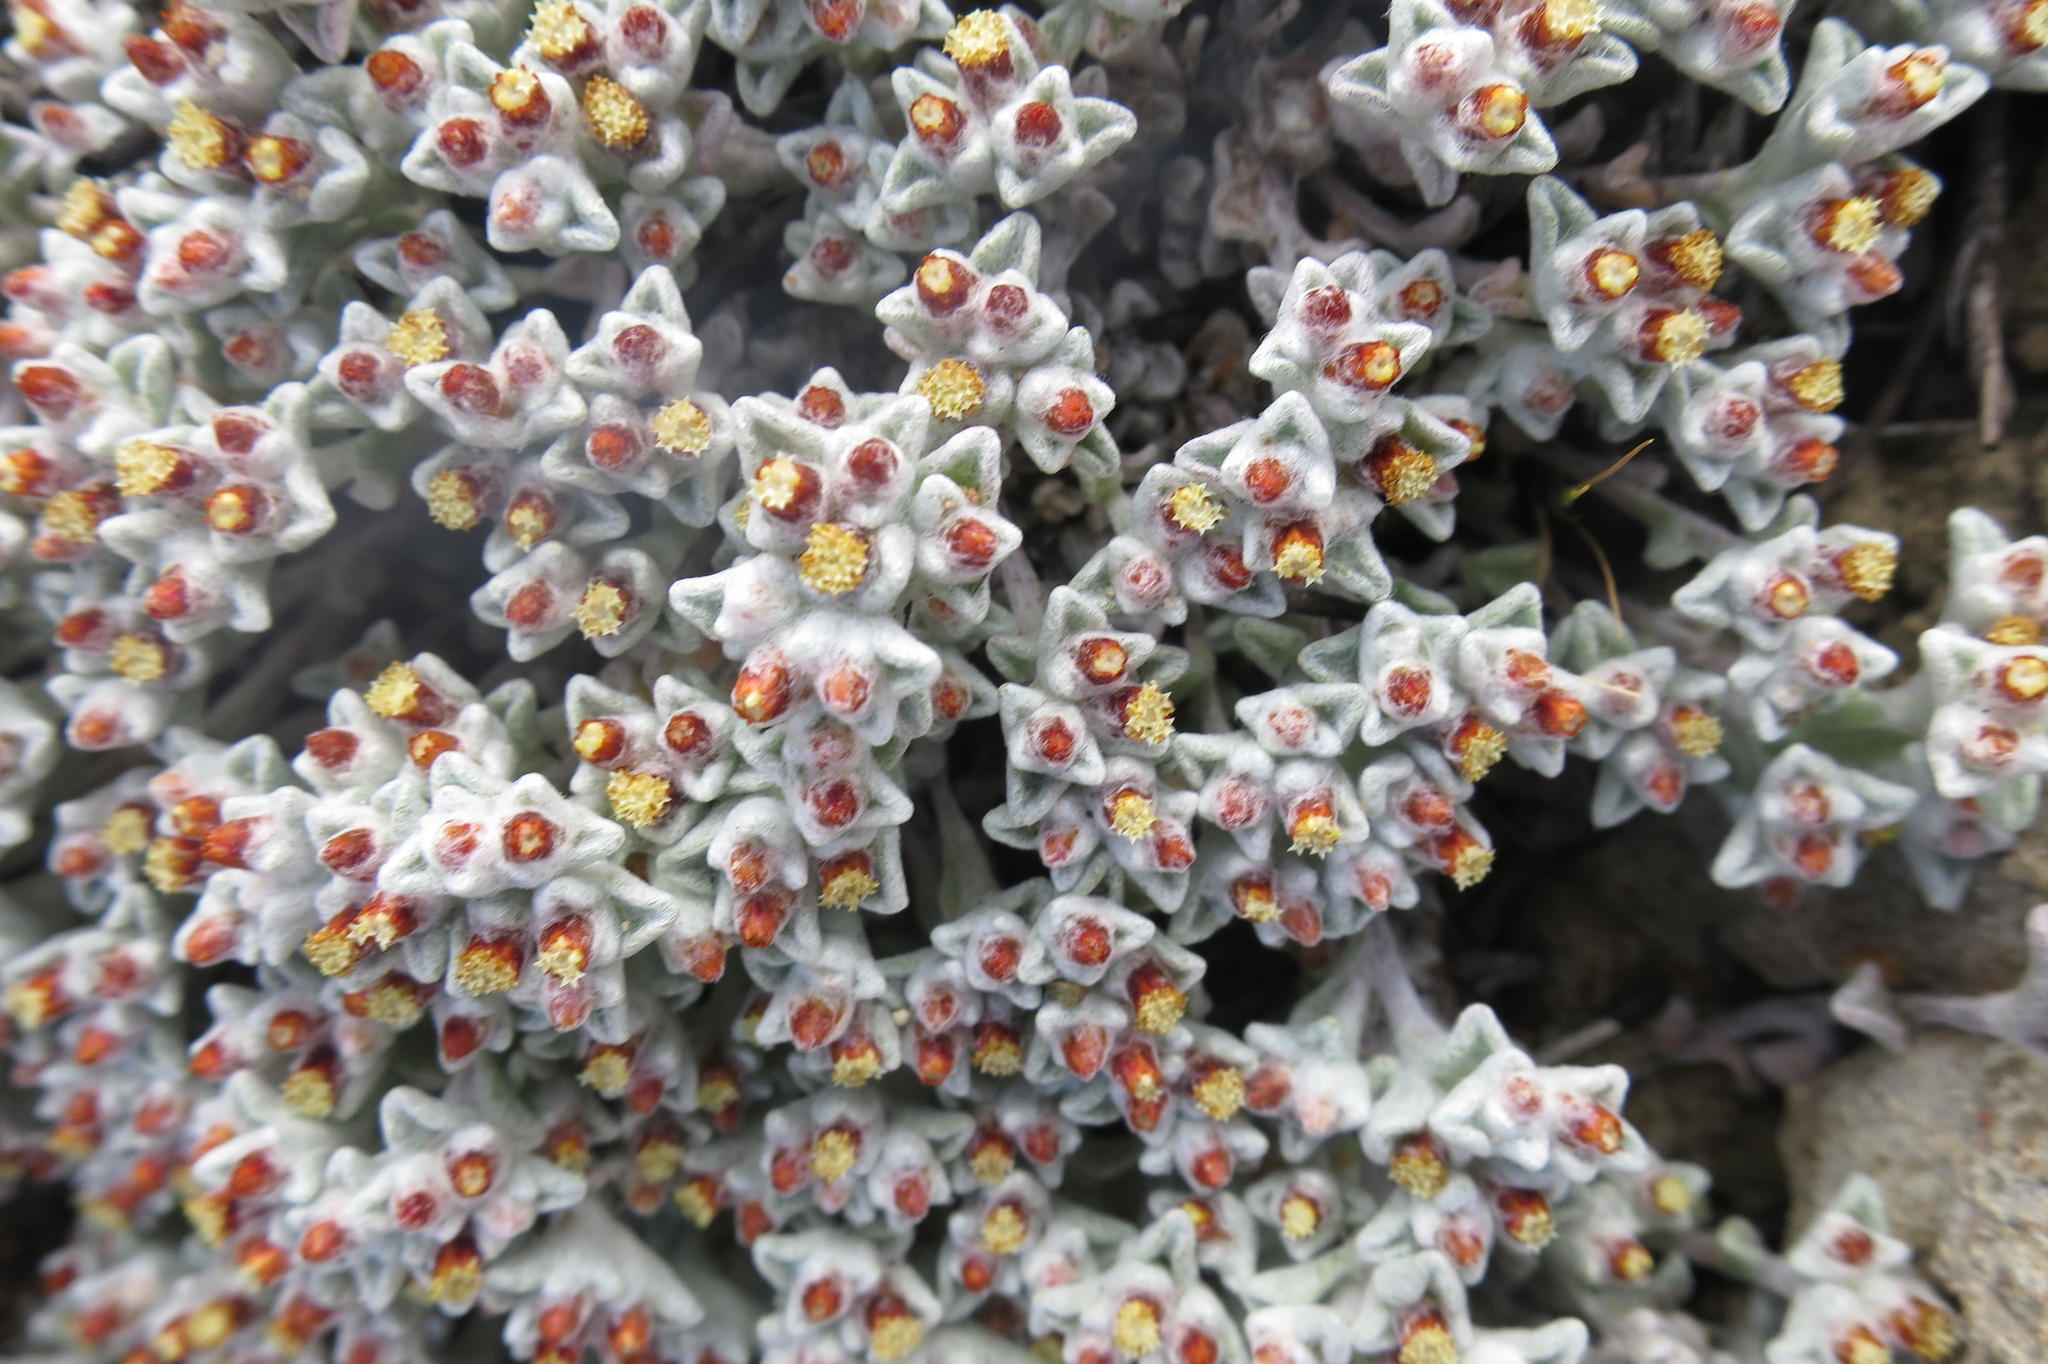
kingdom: Plantae
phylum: Tracheophyta
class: Magnoliopsida
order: Asterales
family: Asteraceae
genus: Helichrysum
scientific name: Helichrysum zwartbergense
